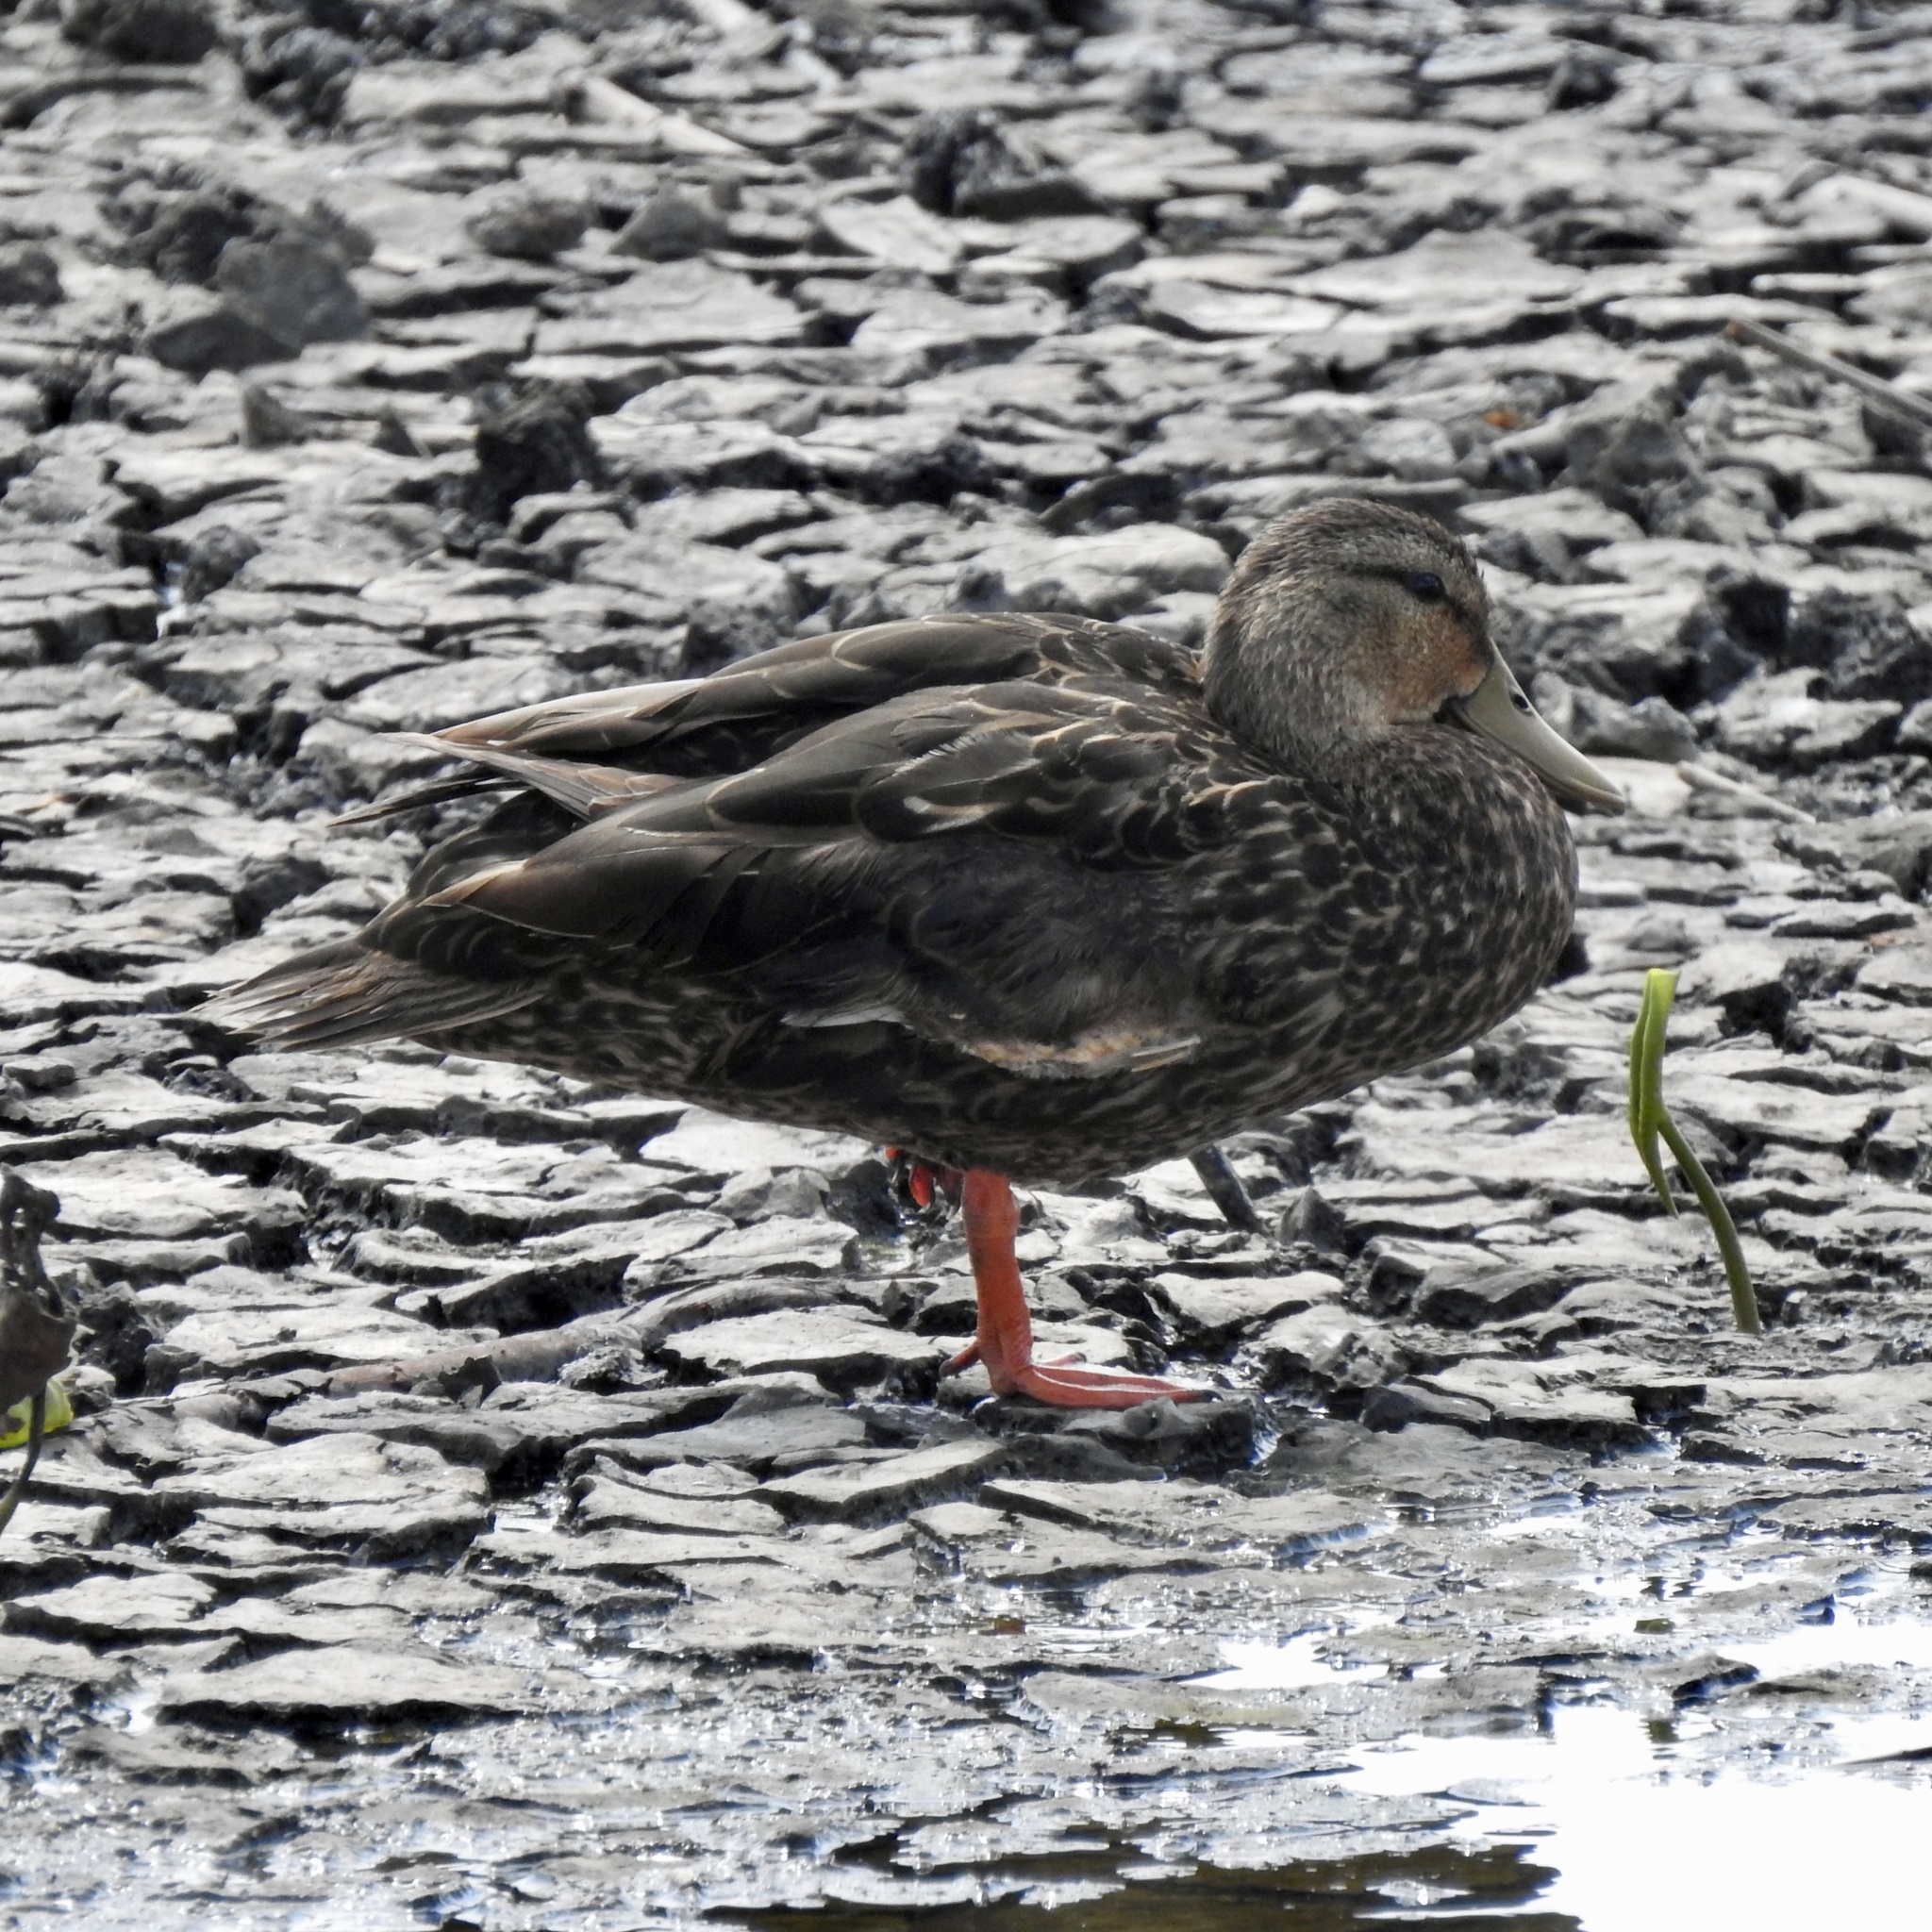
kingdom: Animalia
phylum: Chordata
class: Aves
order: Anseriformes
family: Anatidae
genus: Anas
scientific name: Anas fulvigula
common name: Mottled duck
